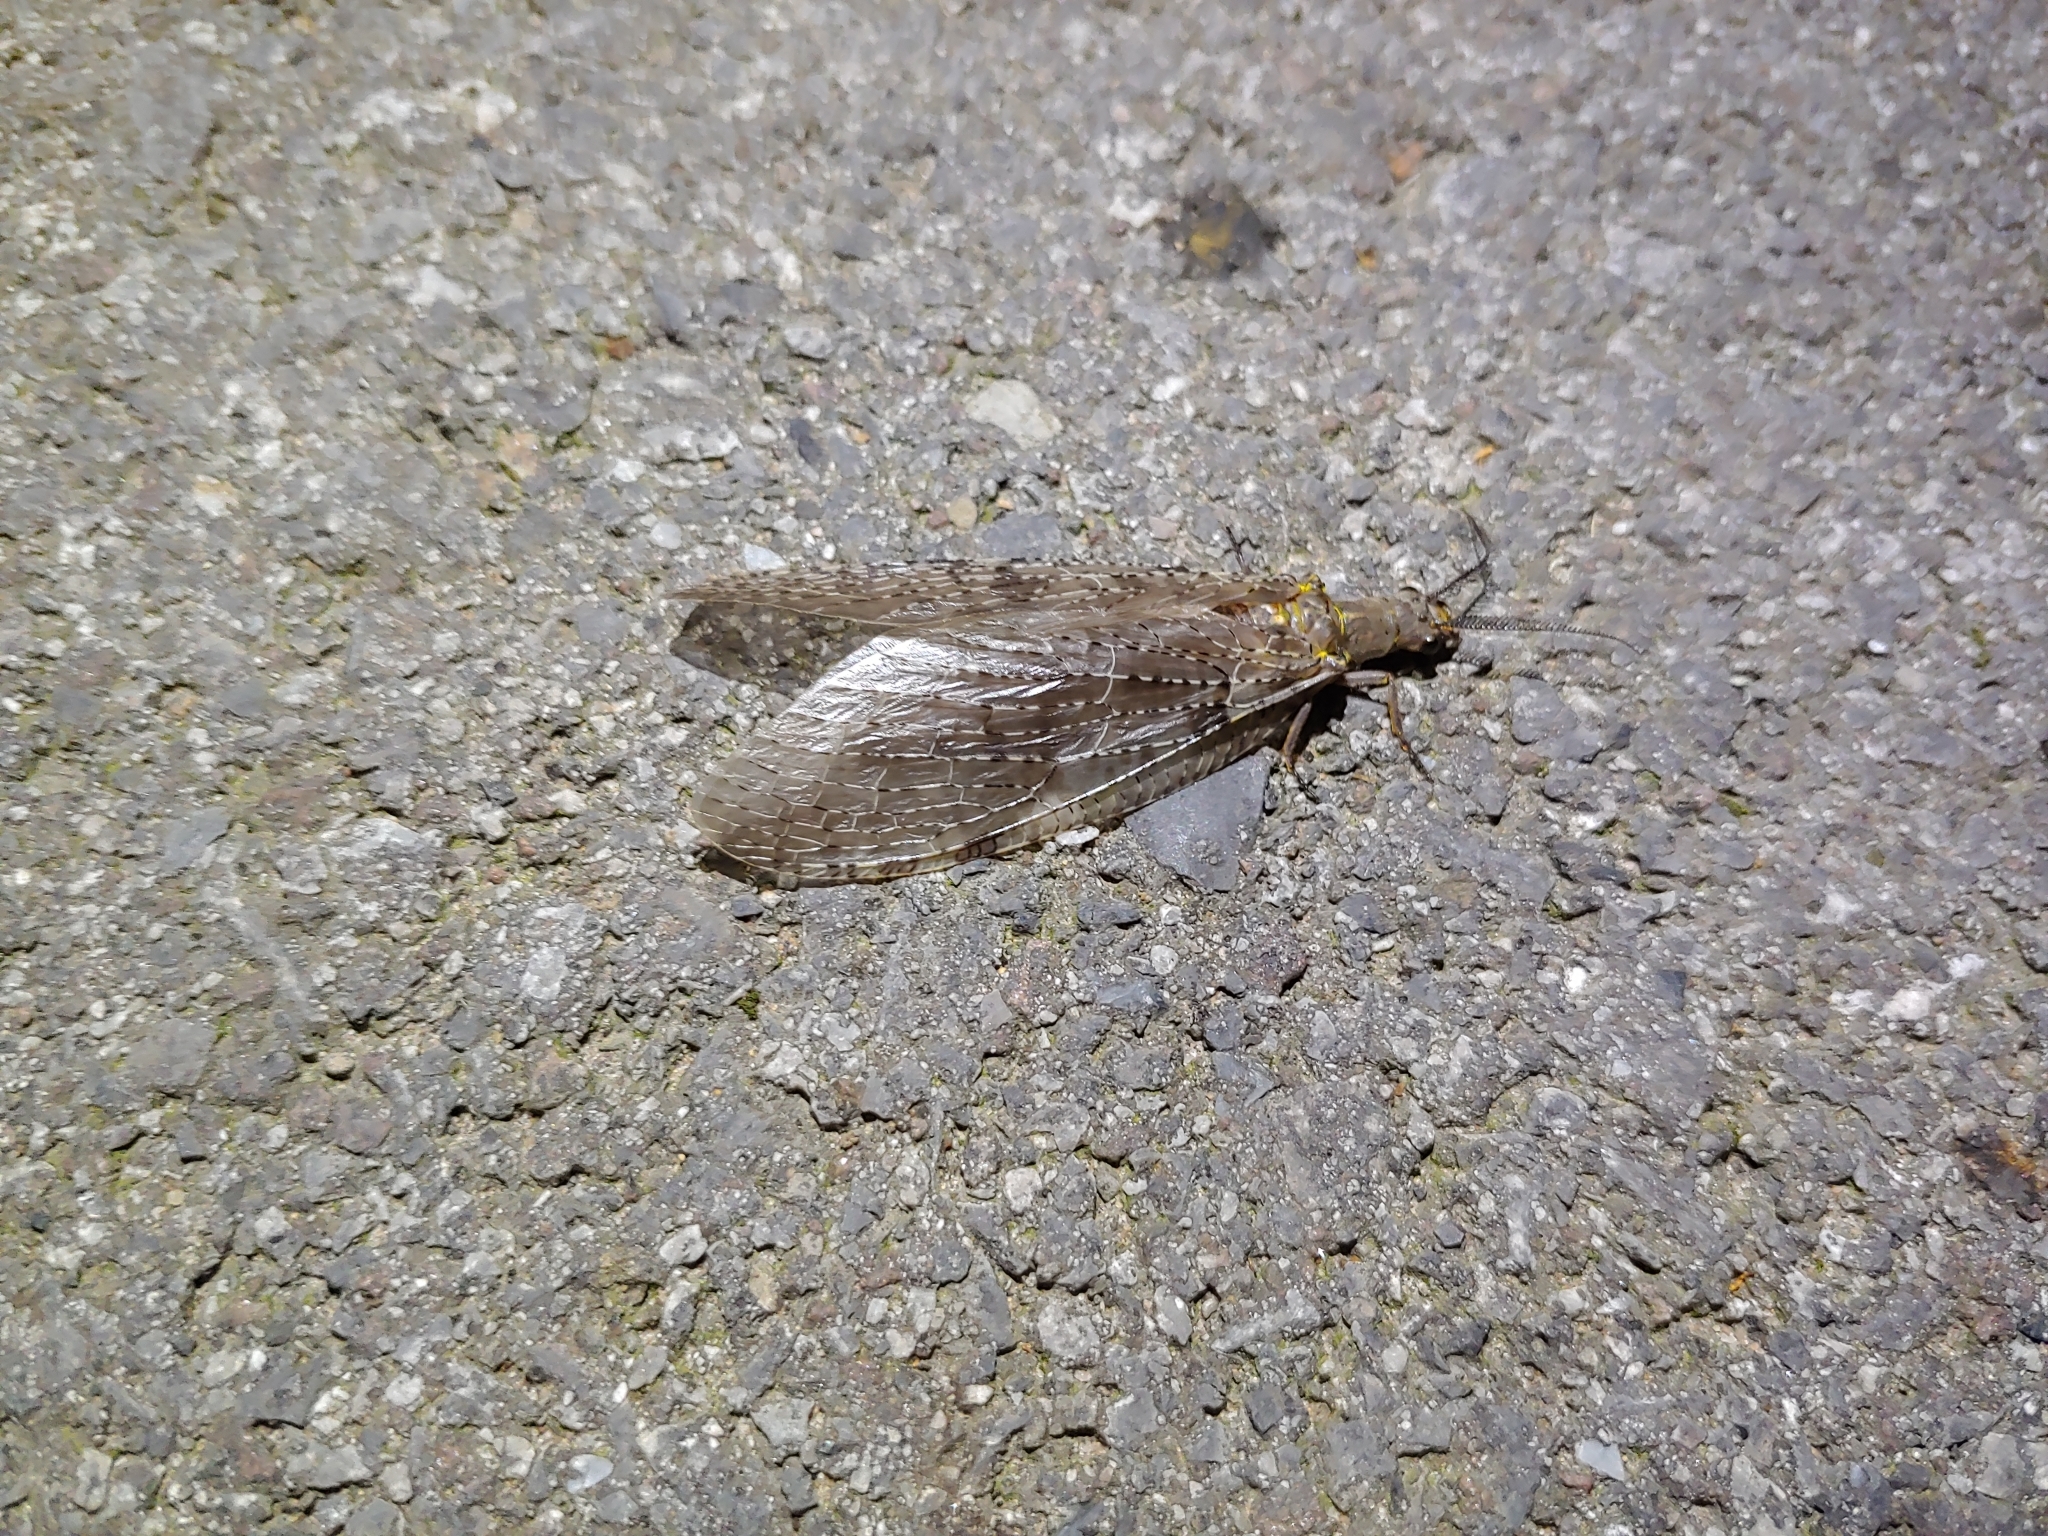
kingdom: Animalia
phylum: Arthropoda
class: Insecta
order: Megaloptera
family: Corydalidae
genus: Chauliodes
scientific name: Chauliodes pectinicornis
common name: Summer fishfly
